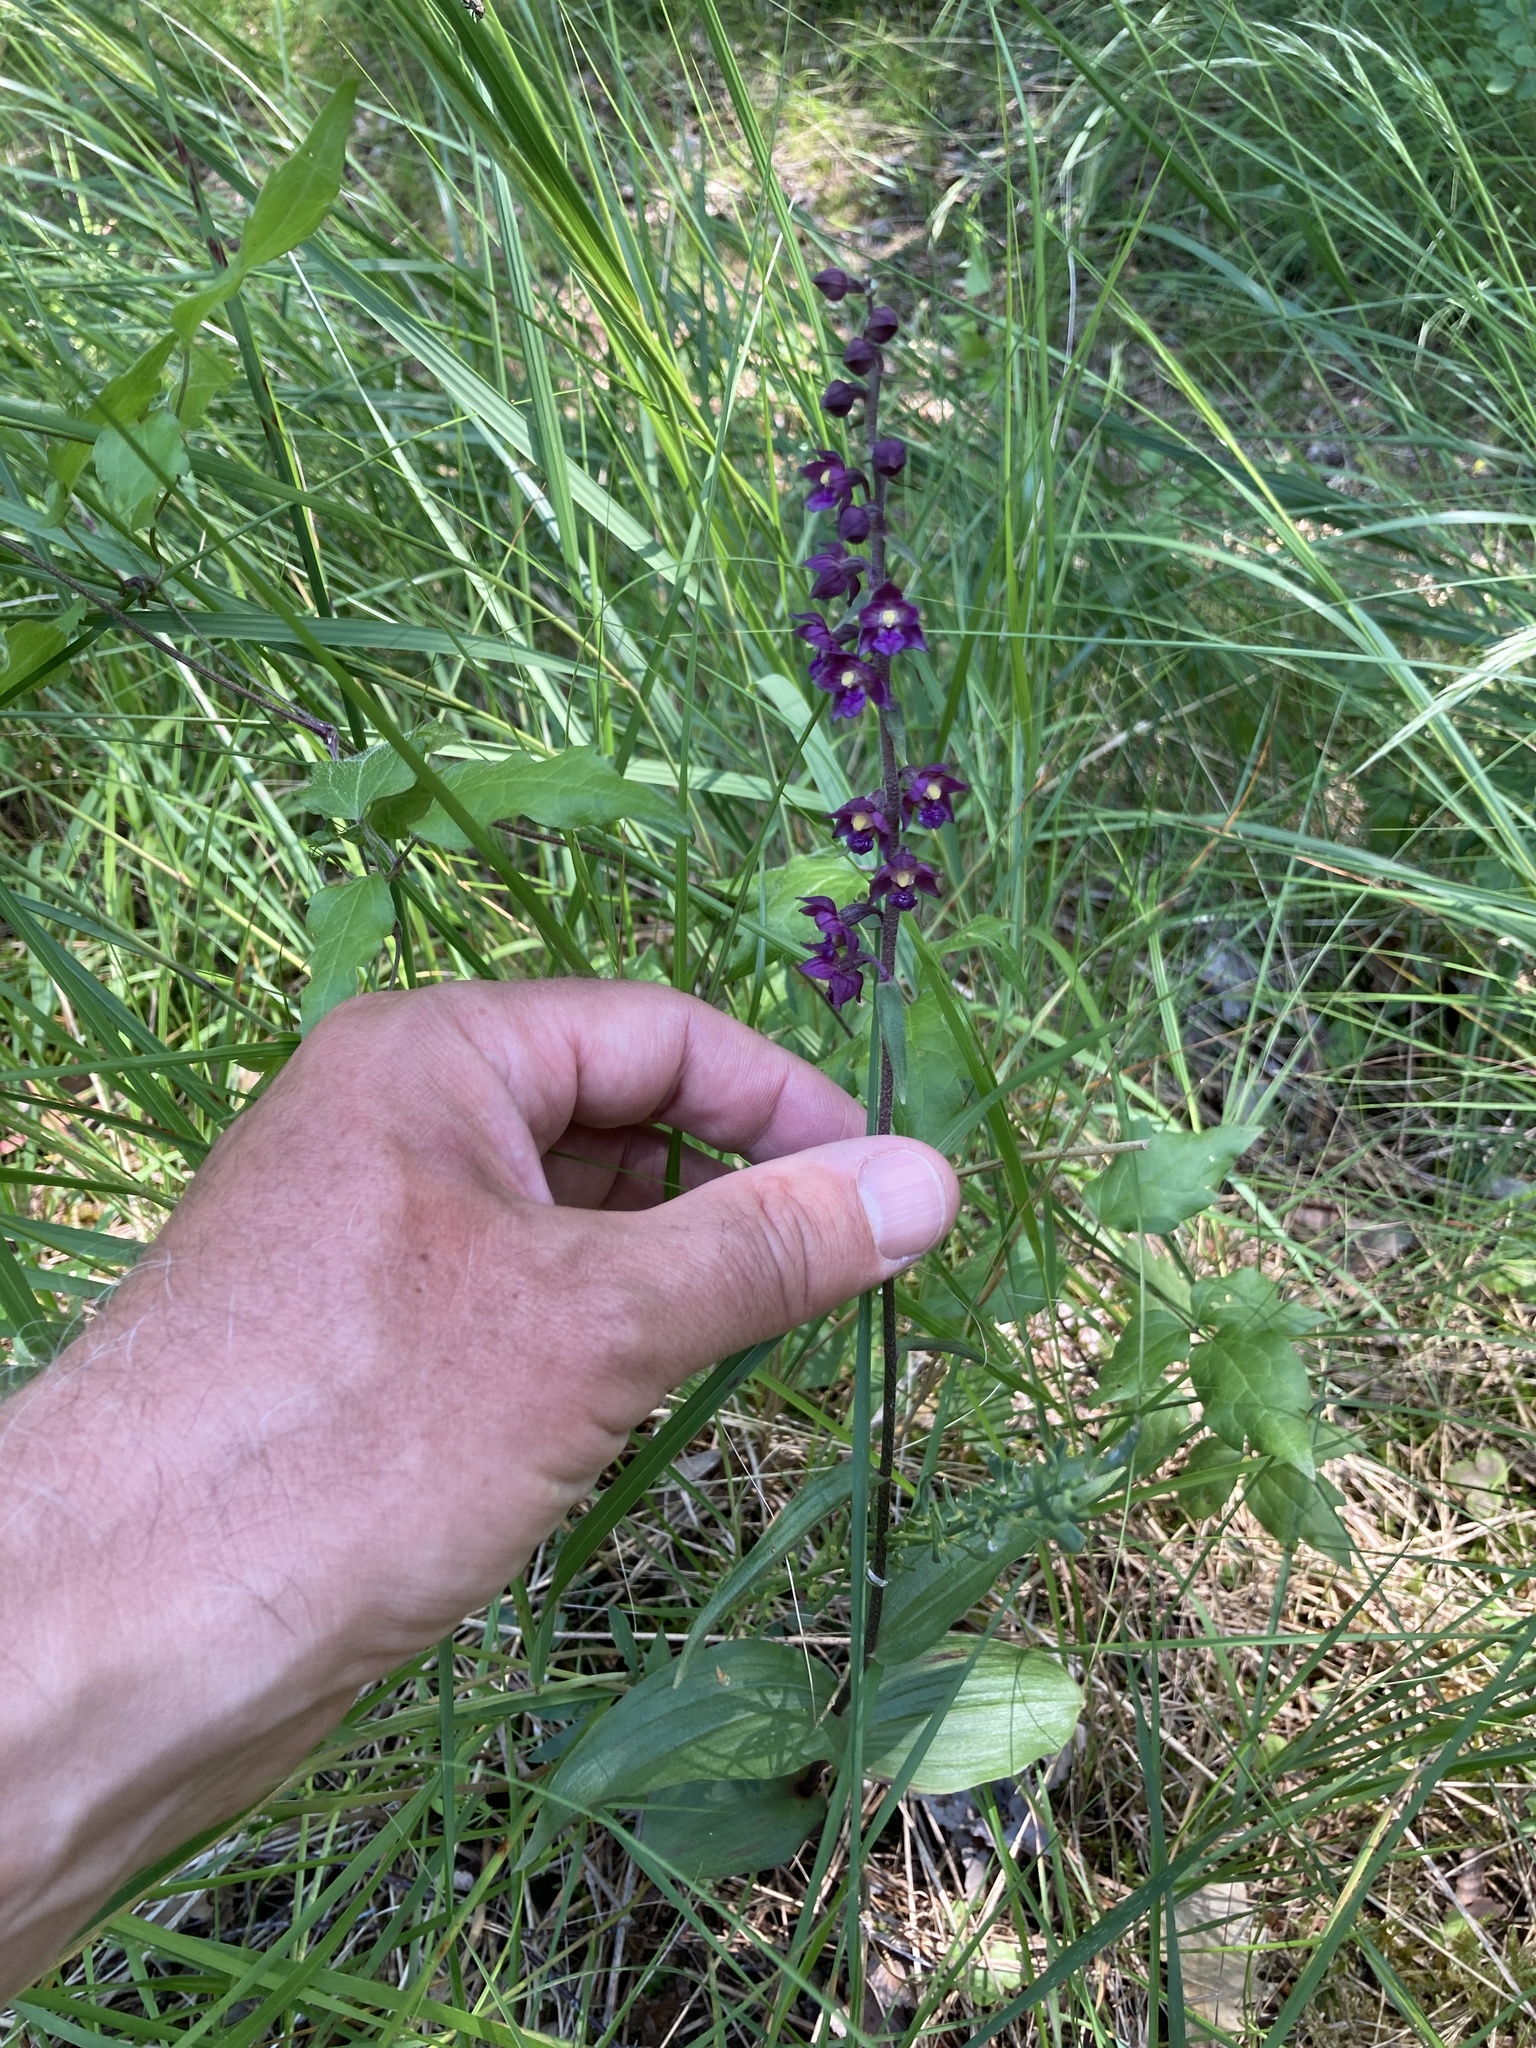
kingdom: Plantae
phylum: Tracheophyta
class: Liliopsida
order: Asparagales
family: Orchidaceae
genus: Epipactis
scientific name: Epipactis atrorubens
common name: Dark-red helleborine
